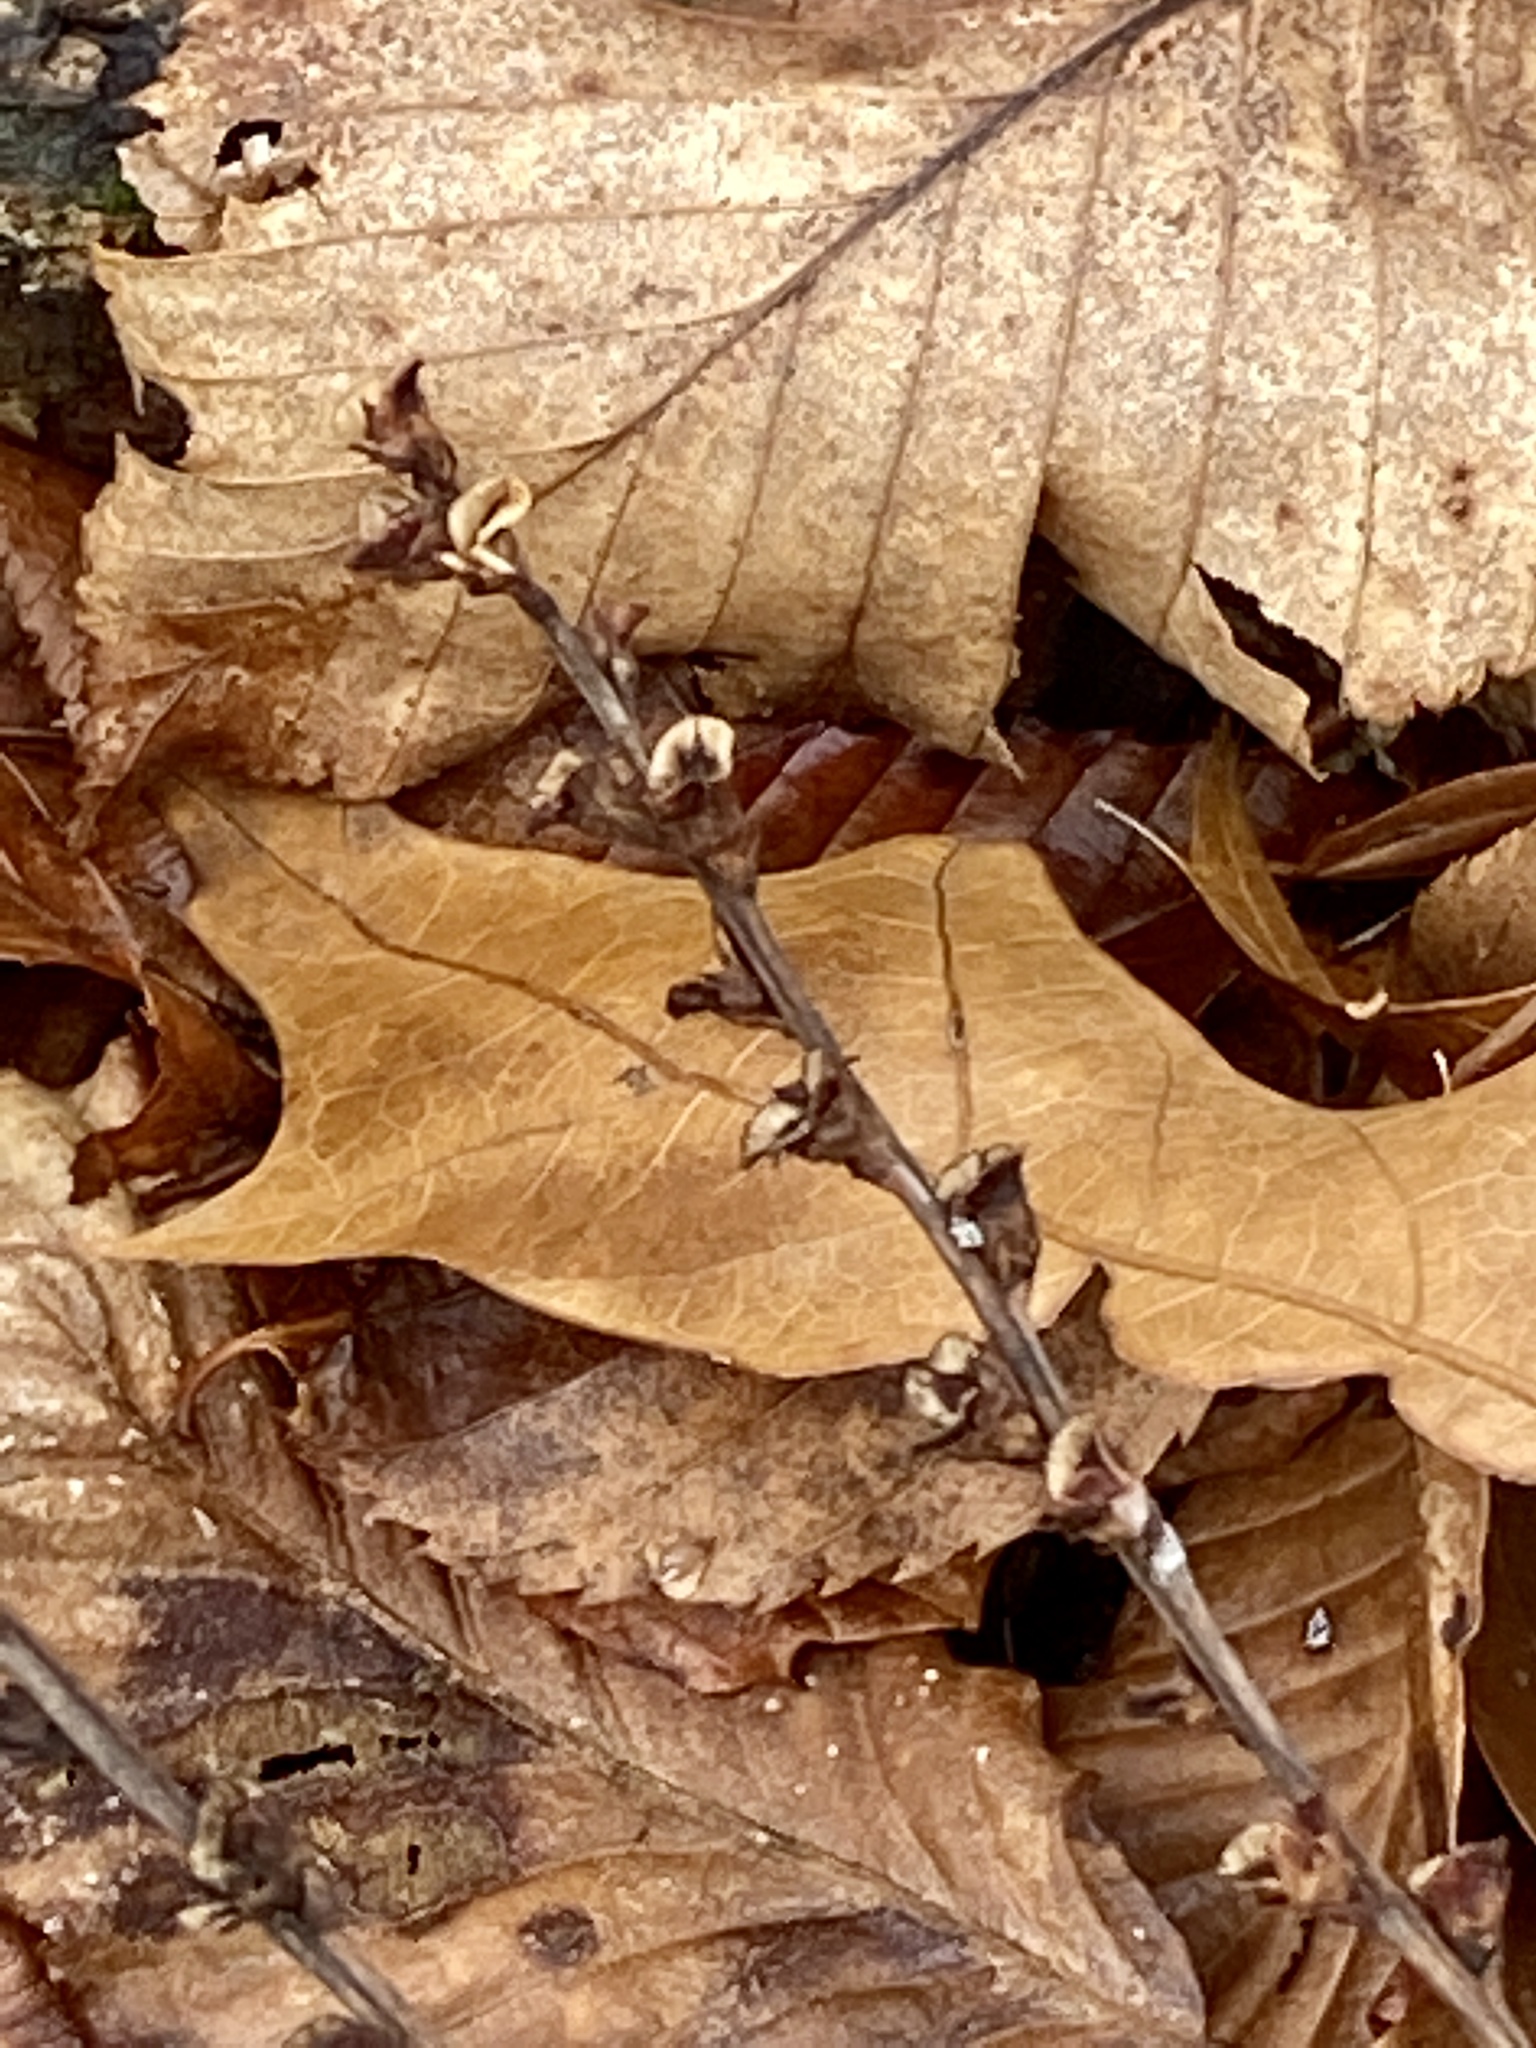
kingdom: Plantae
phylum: Tracheophyta
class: Magnoliopsida
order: Lamiales
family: Orobanchaceae
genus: Epifagus
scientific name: Epifagus virginiana
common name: Beechdrops
